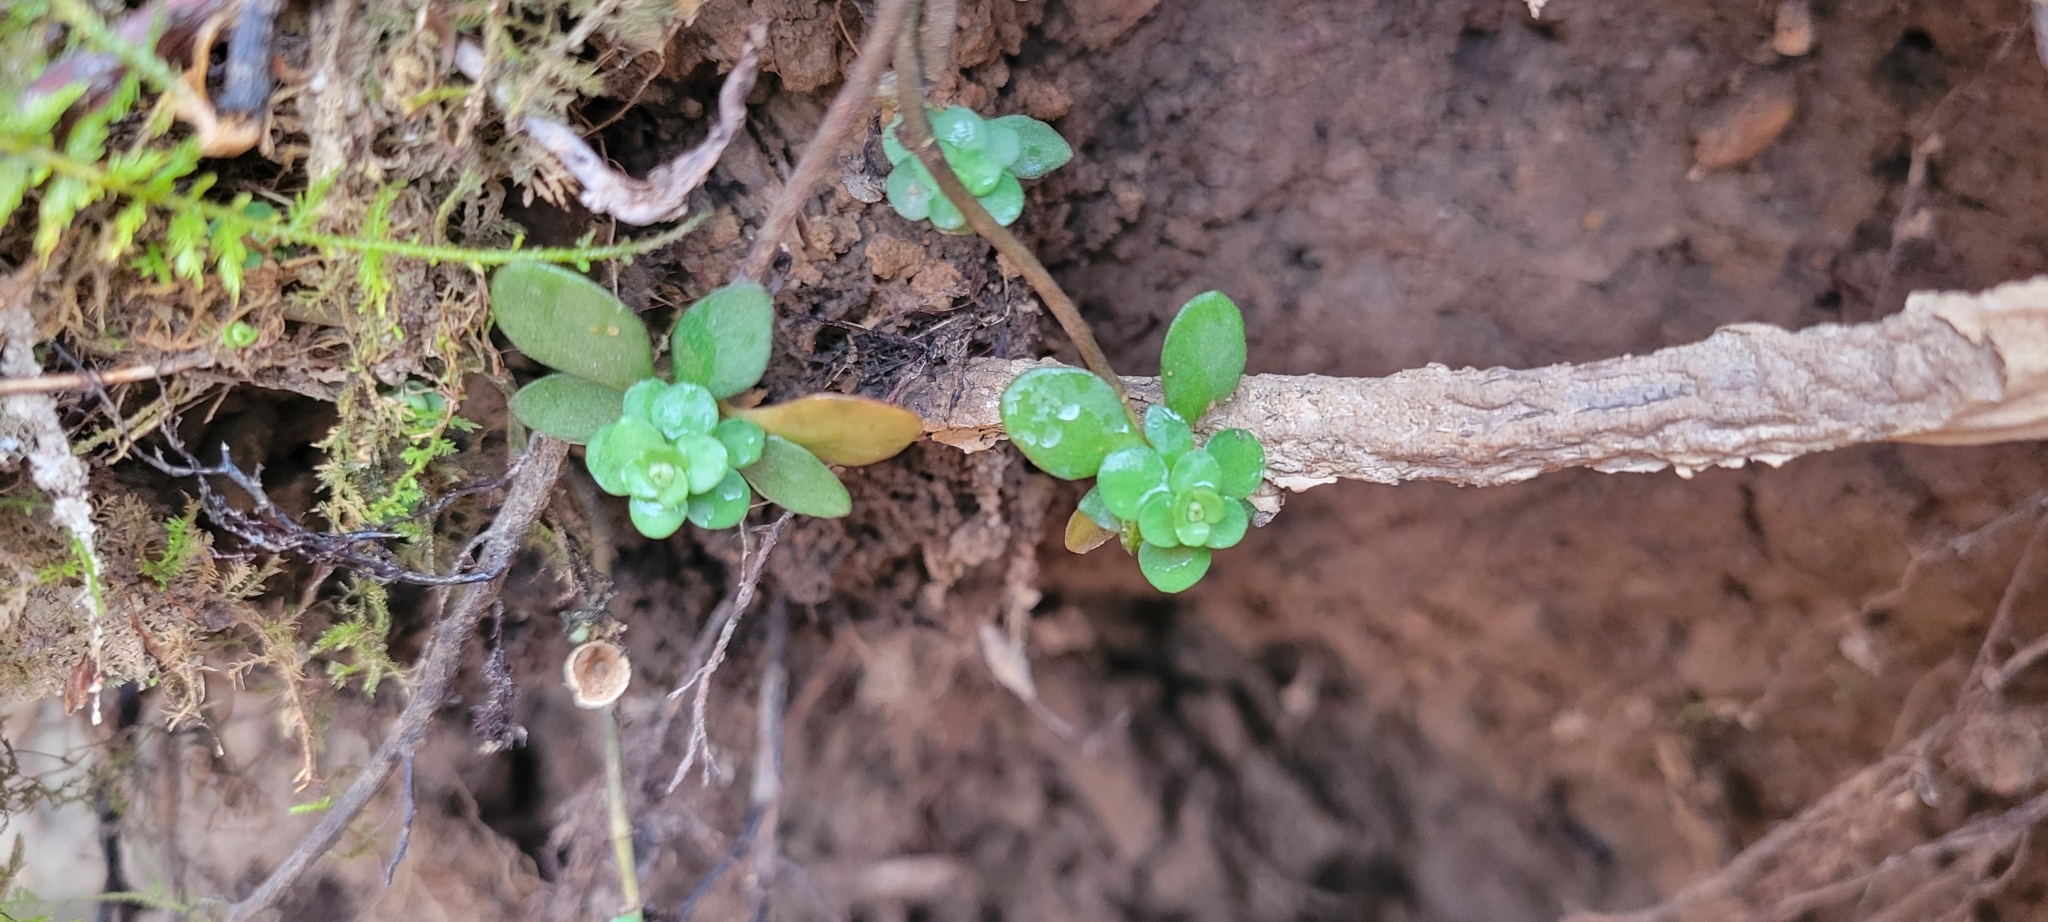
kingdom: Plantae
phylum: Tracheophyta
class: Magnoliopsida
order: Saxifragales
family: Crassulaceae
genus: Sedum
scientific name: Sedum ternatum
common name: Wild stonecrop
